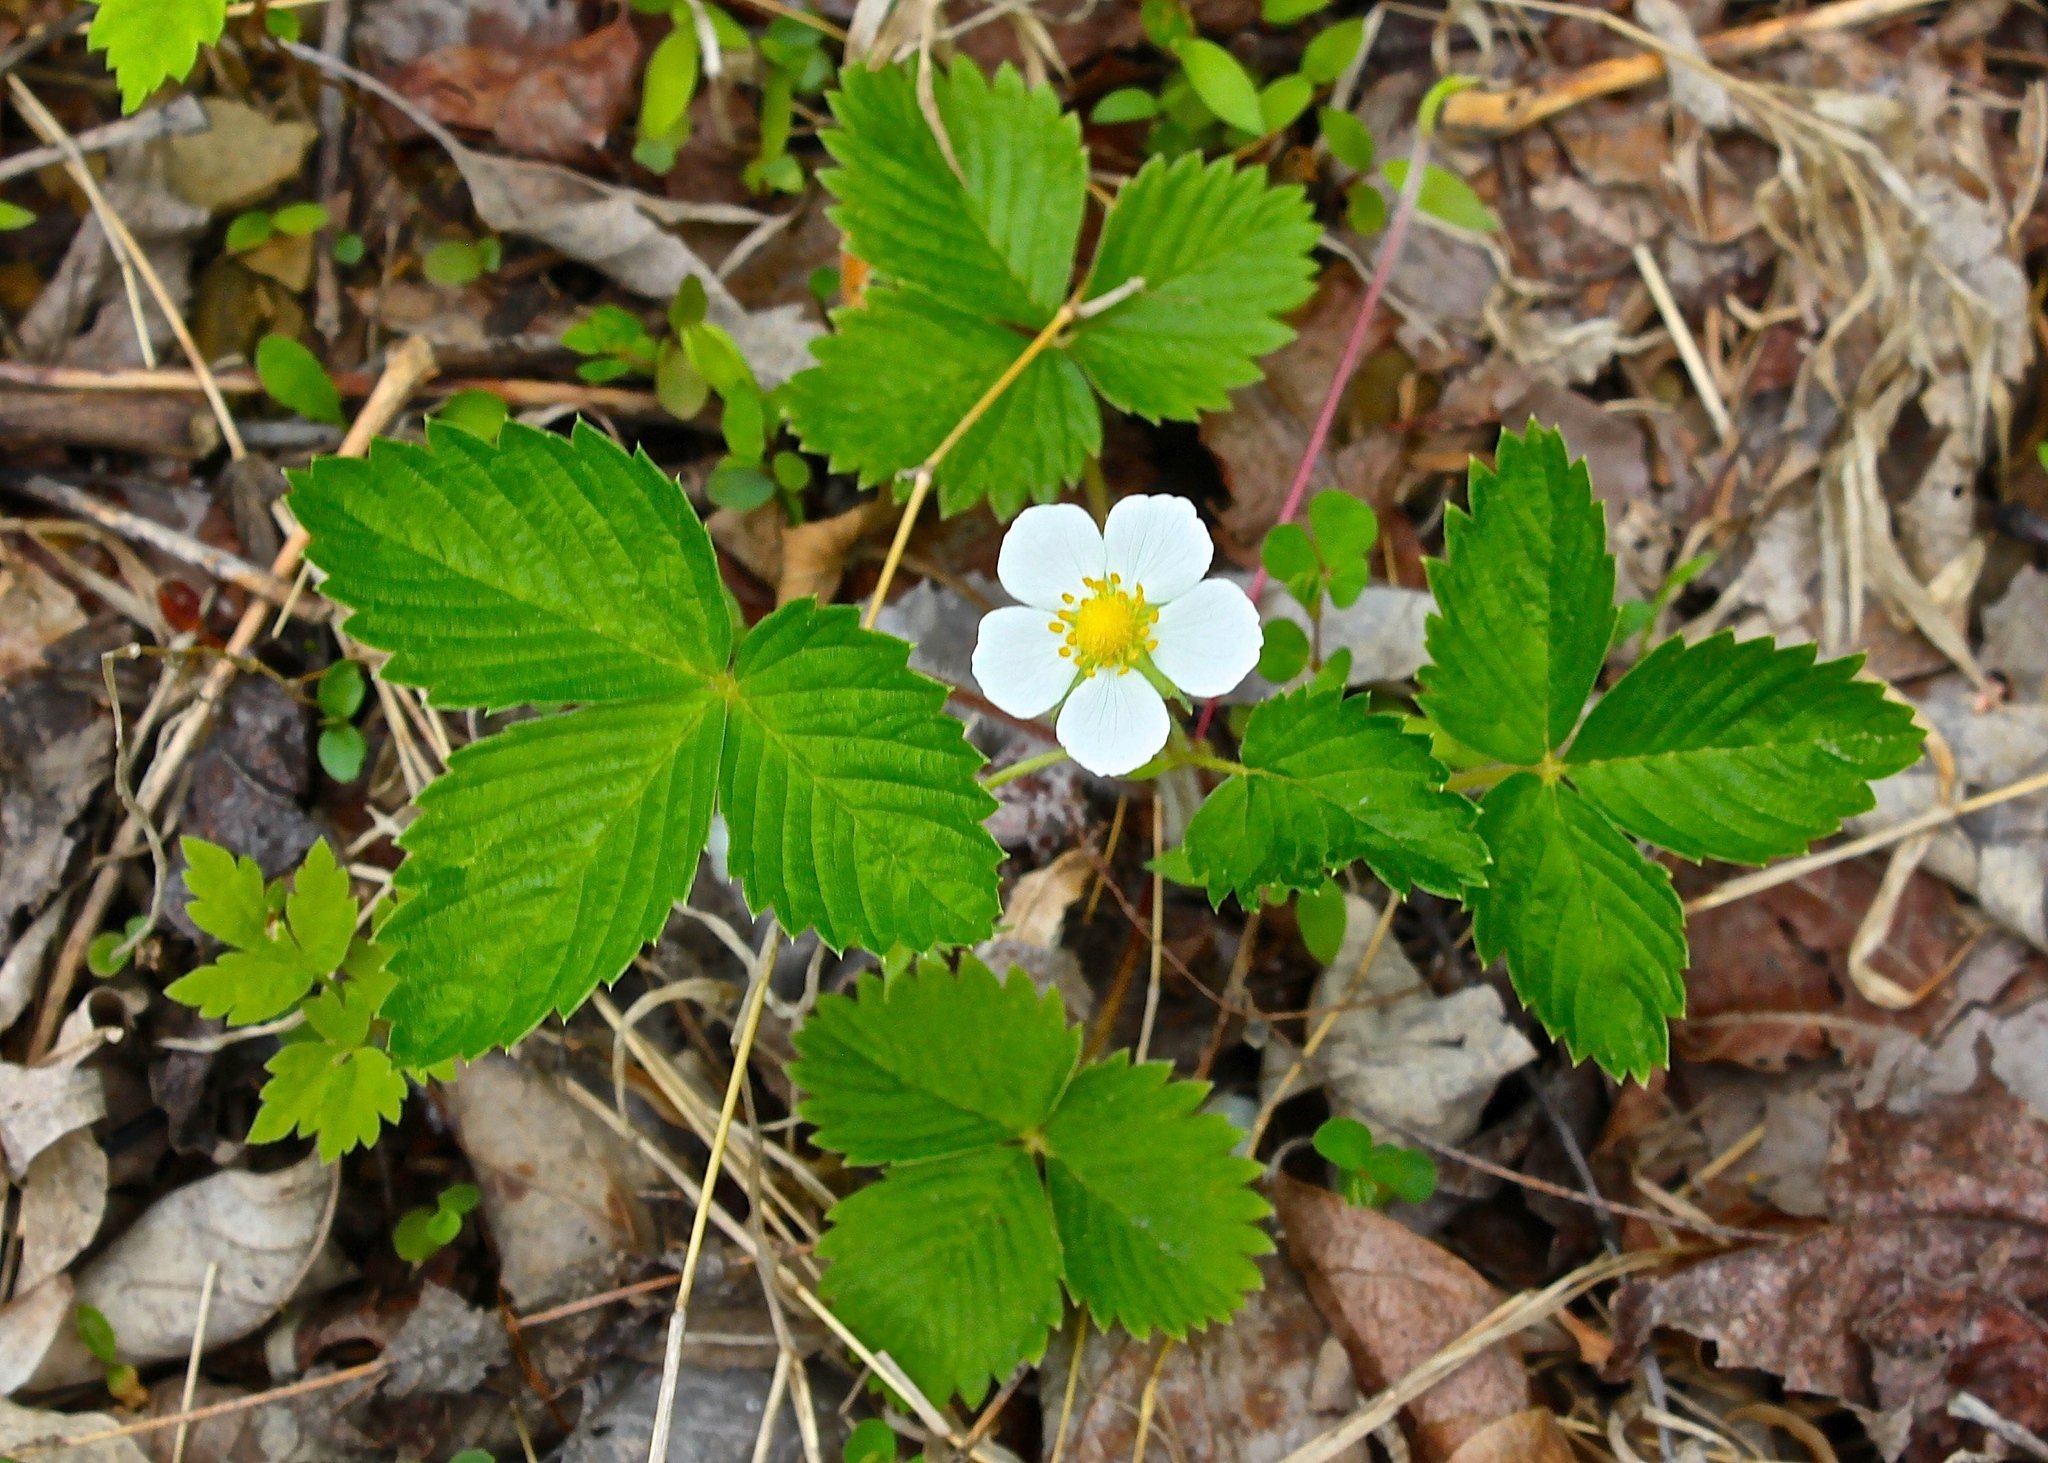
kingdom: Plantae
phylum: Tracheophyta
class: Magnoliopsida
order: Rosales
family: Rosaceae
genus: Fragaria
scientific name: Fragaria vesca
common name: Wild strawberry
